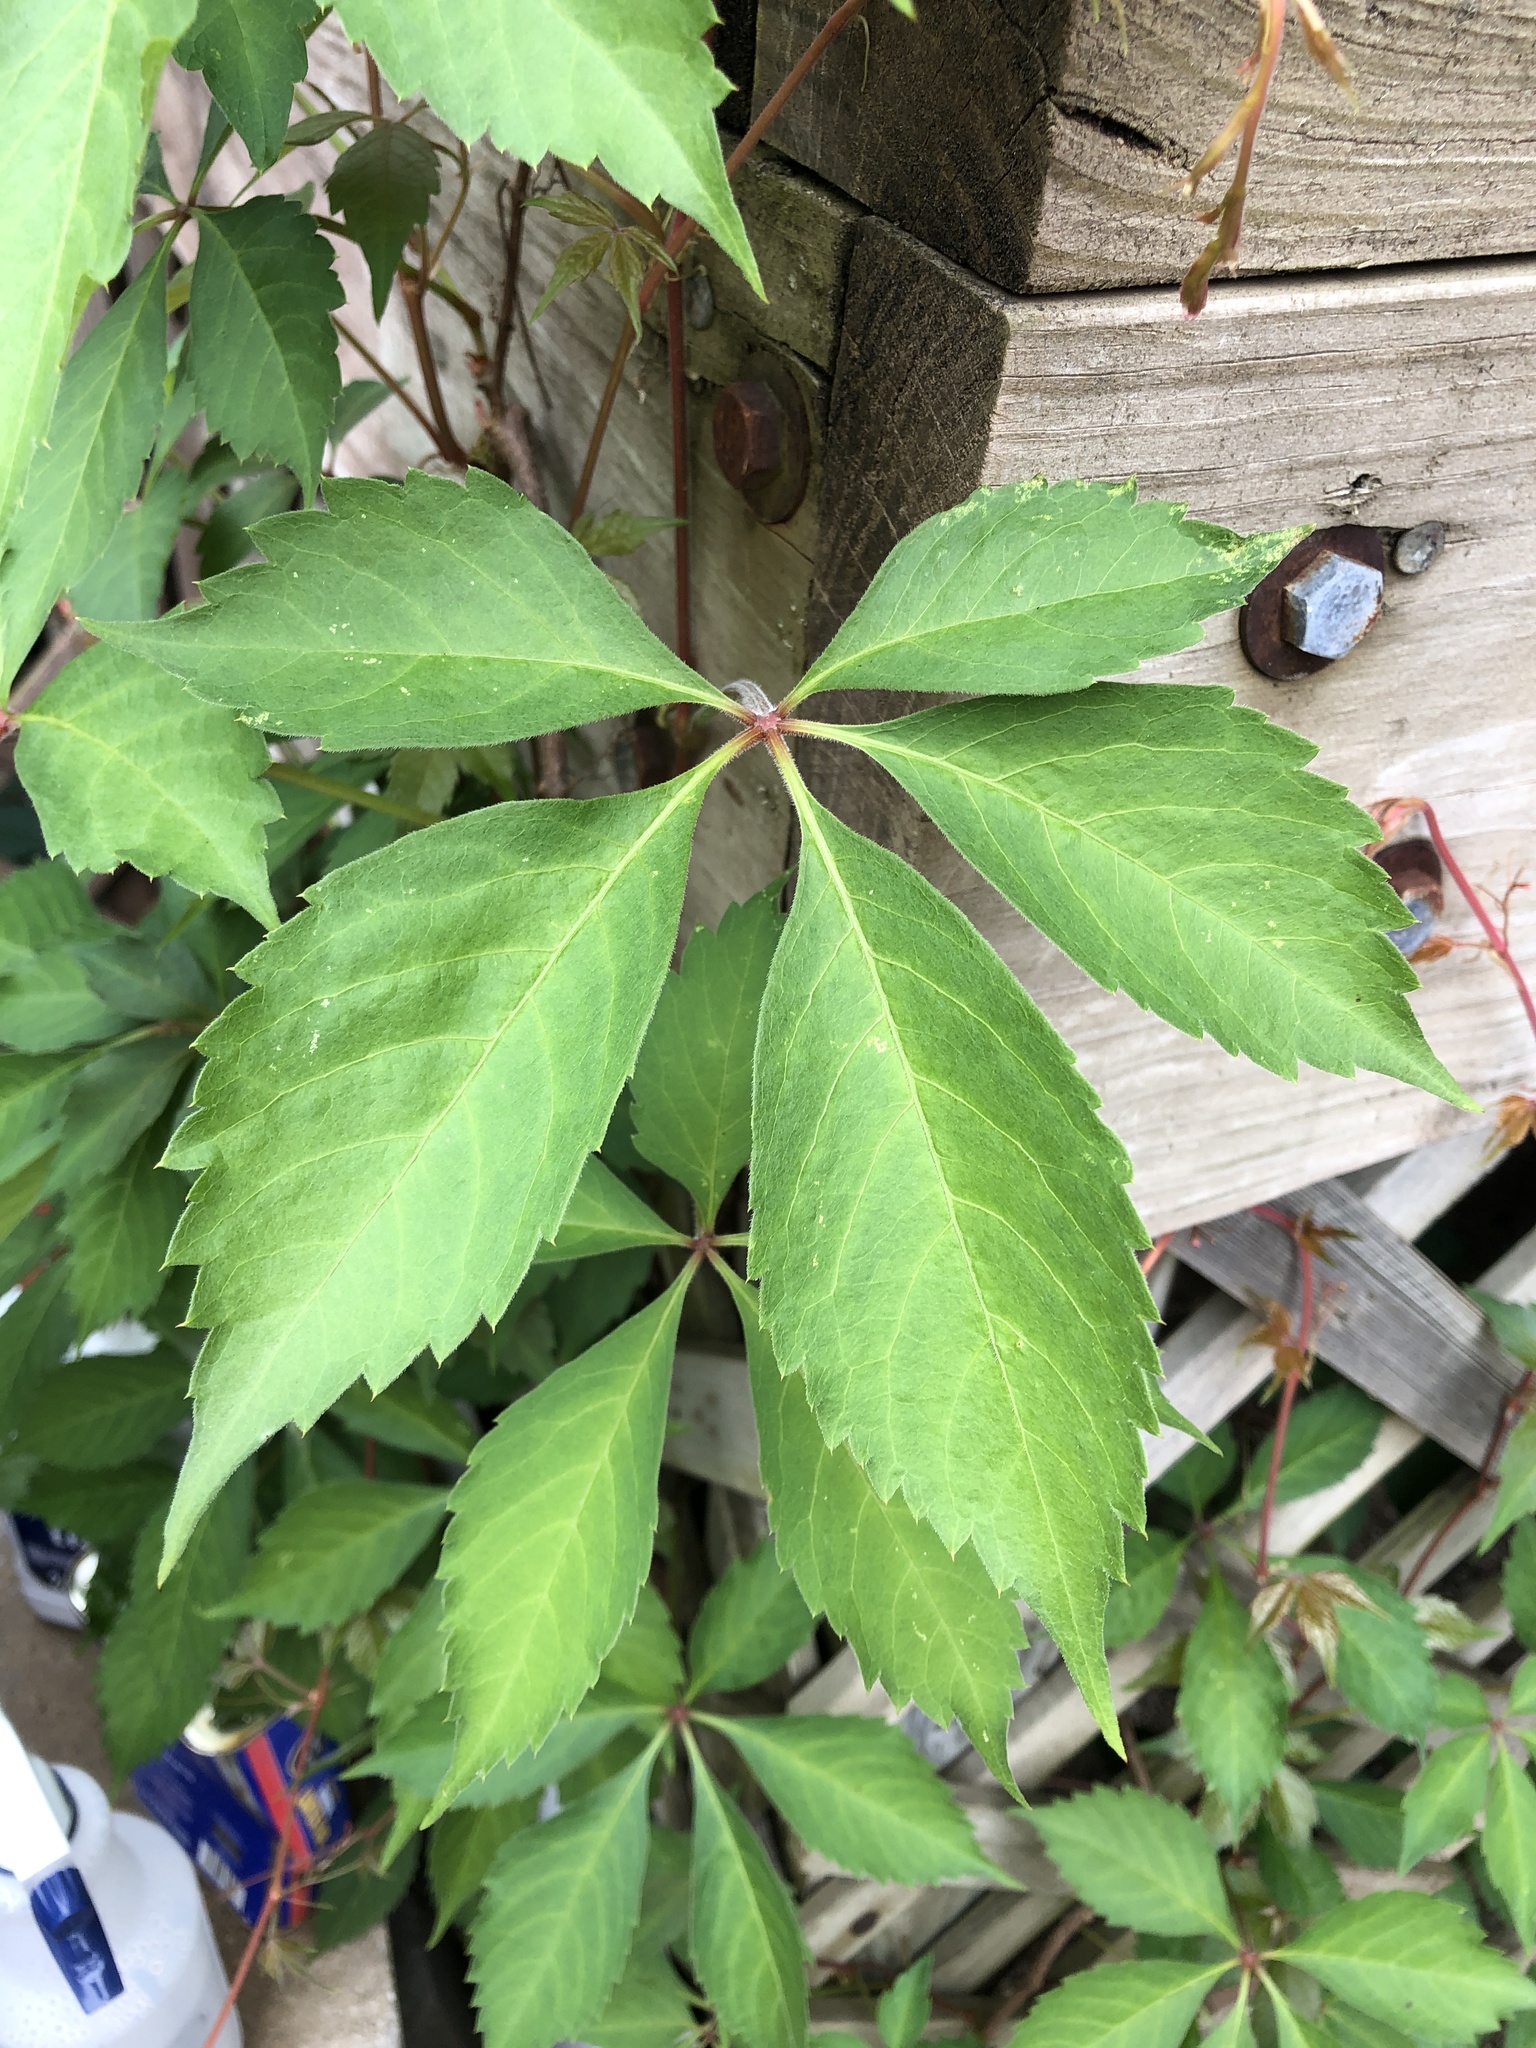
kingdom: Plantae
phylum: Tracheophyta
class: Magnoliopsida
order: Vitales
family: Vitaceae
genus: Parthenocissus
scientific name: Parthenocissus quinquefolia
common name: Virginia-creeper
